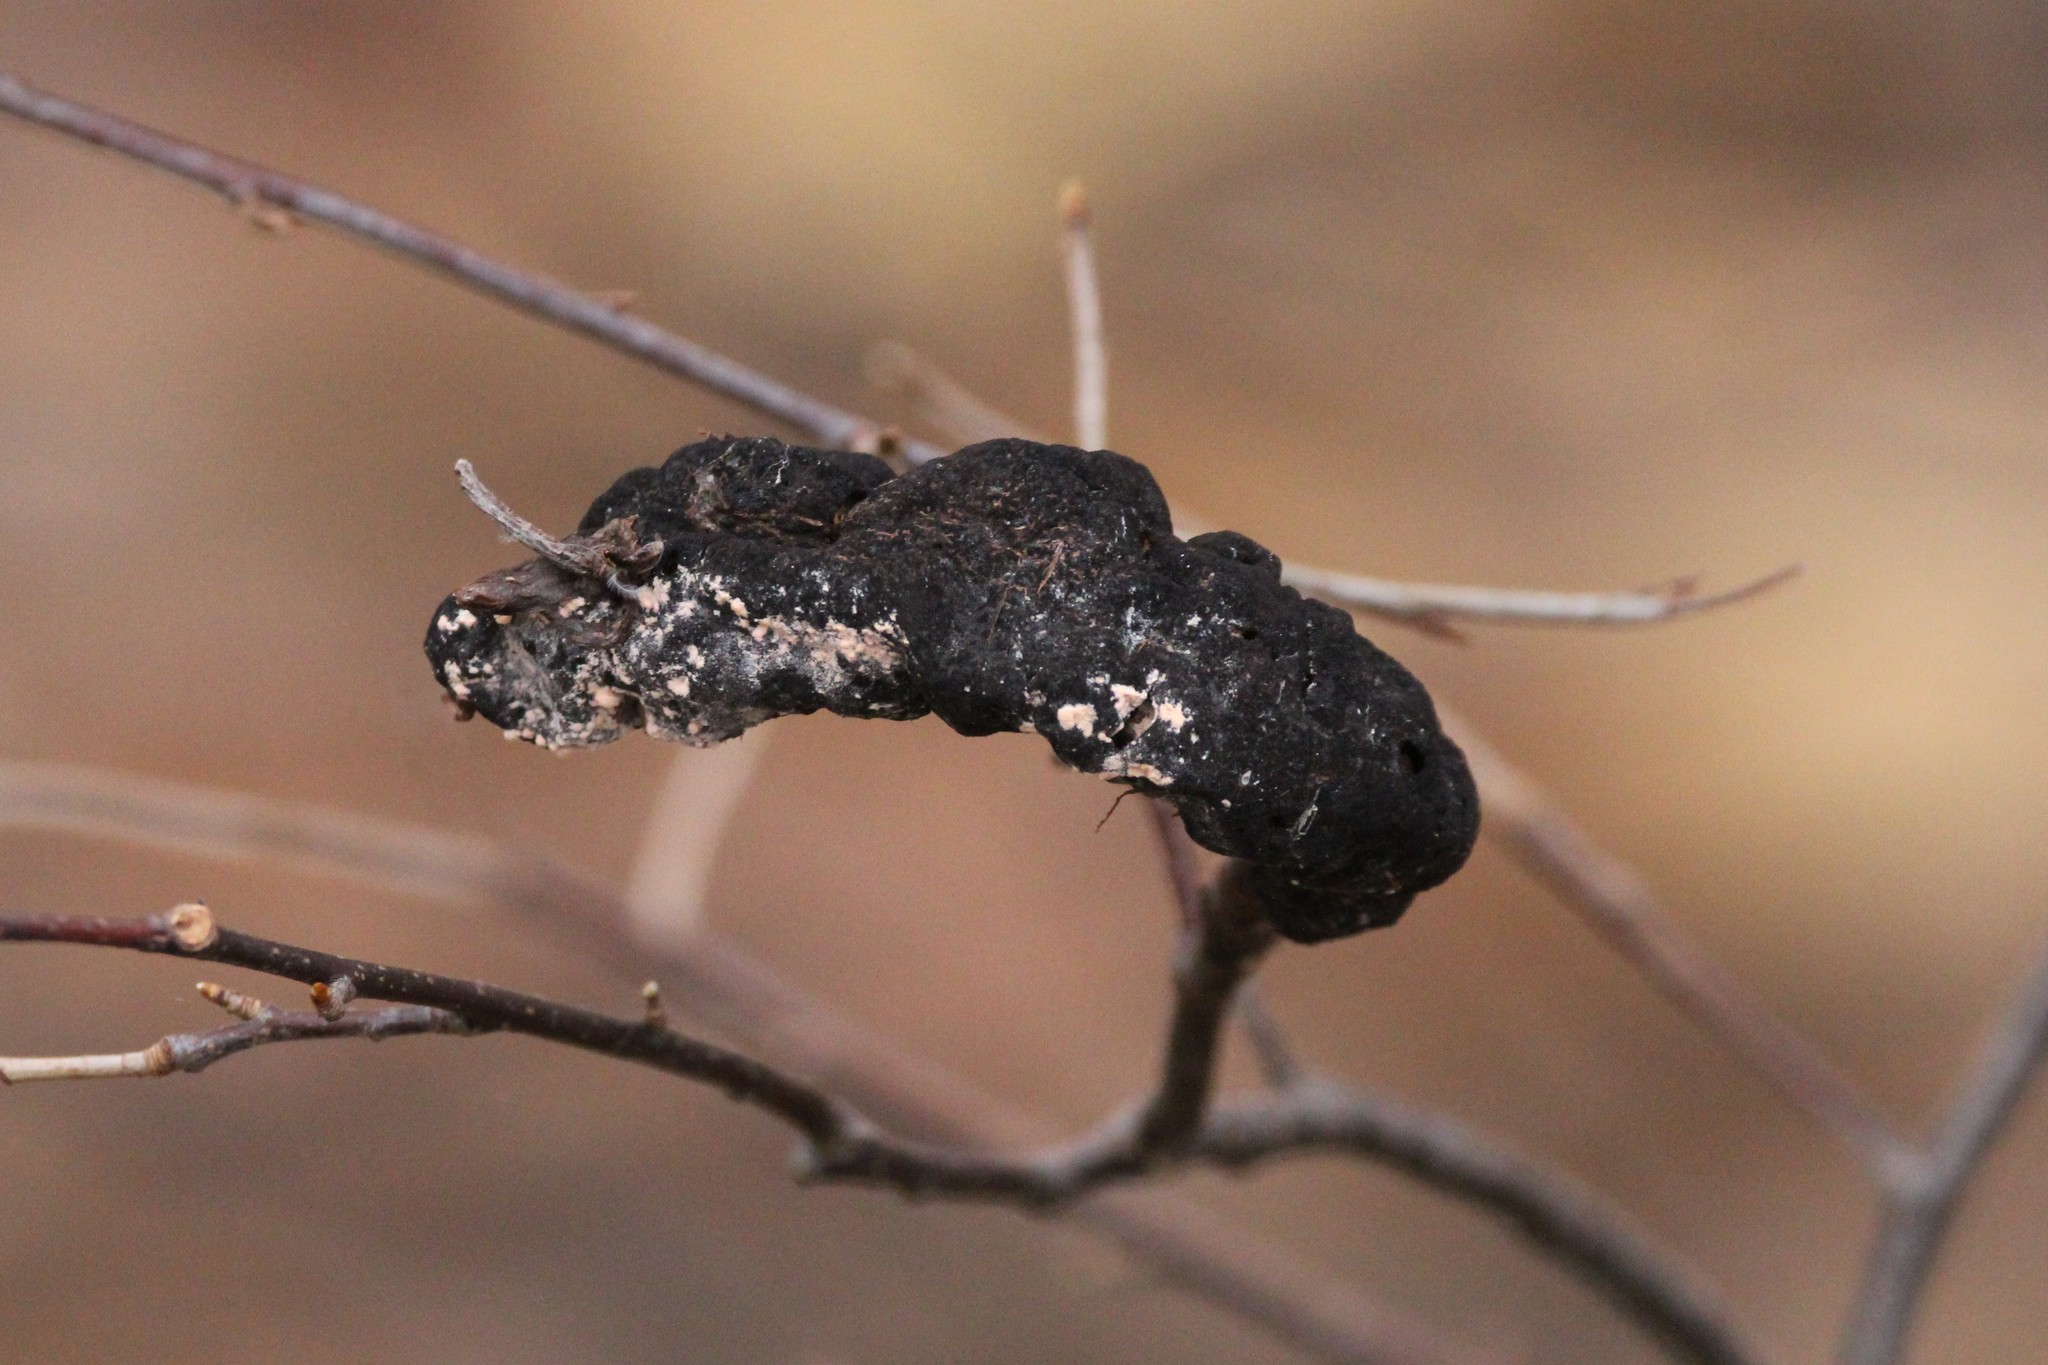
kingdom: Fungi
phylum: Ascomycota
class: Dothideomycetes
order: Venturiales
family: Venturiaceae
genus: Apiosporina
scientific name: Apiosporina morbosa
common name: Black knot
